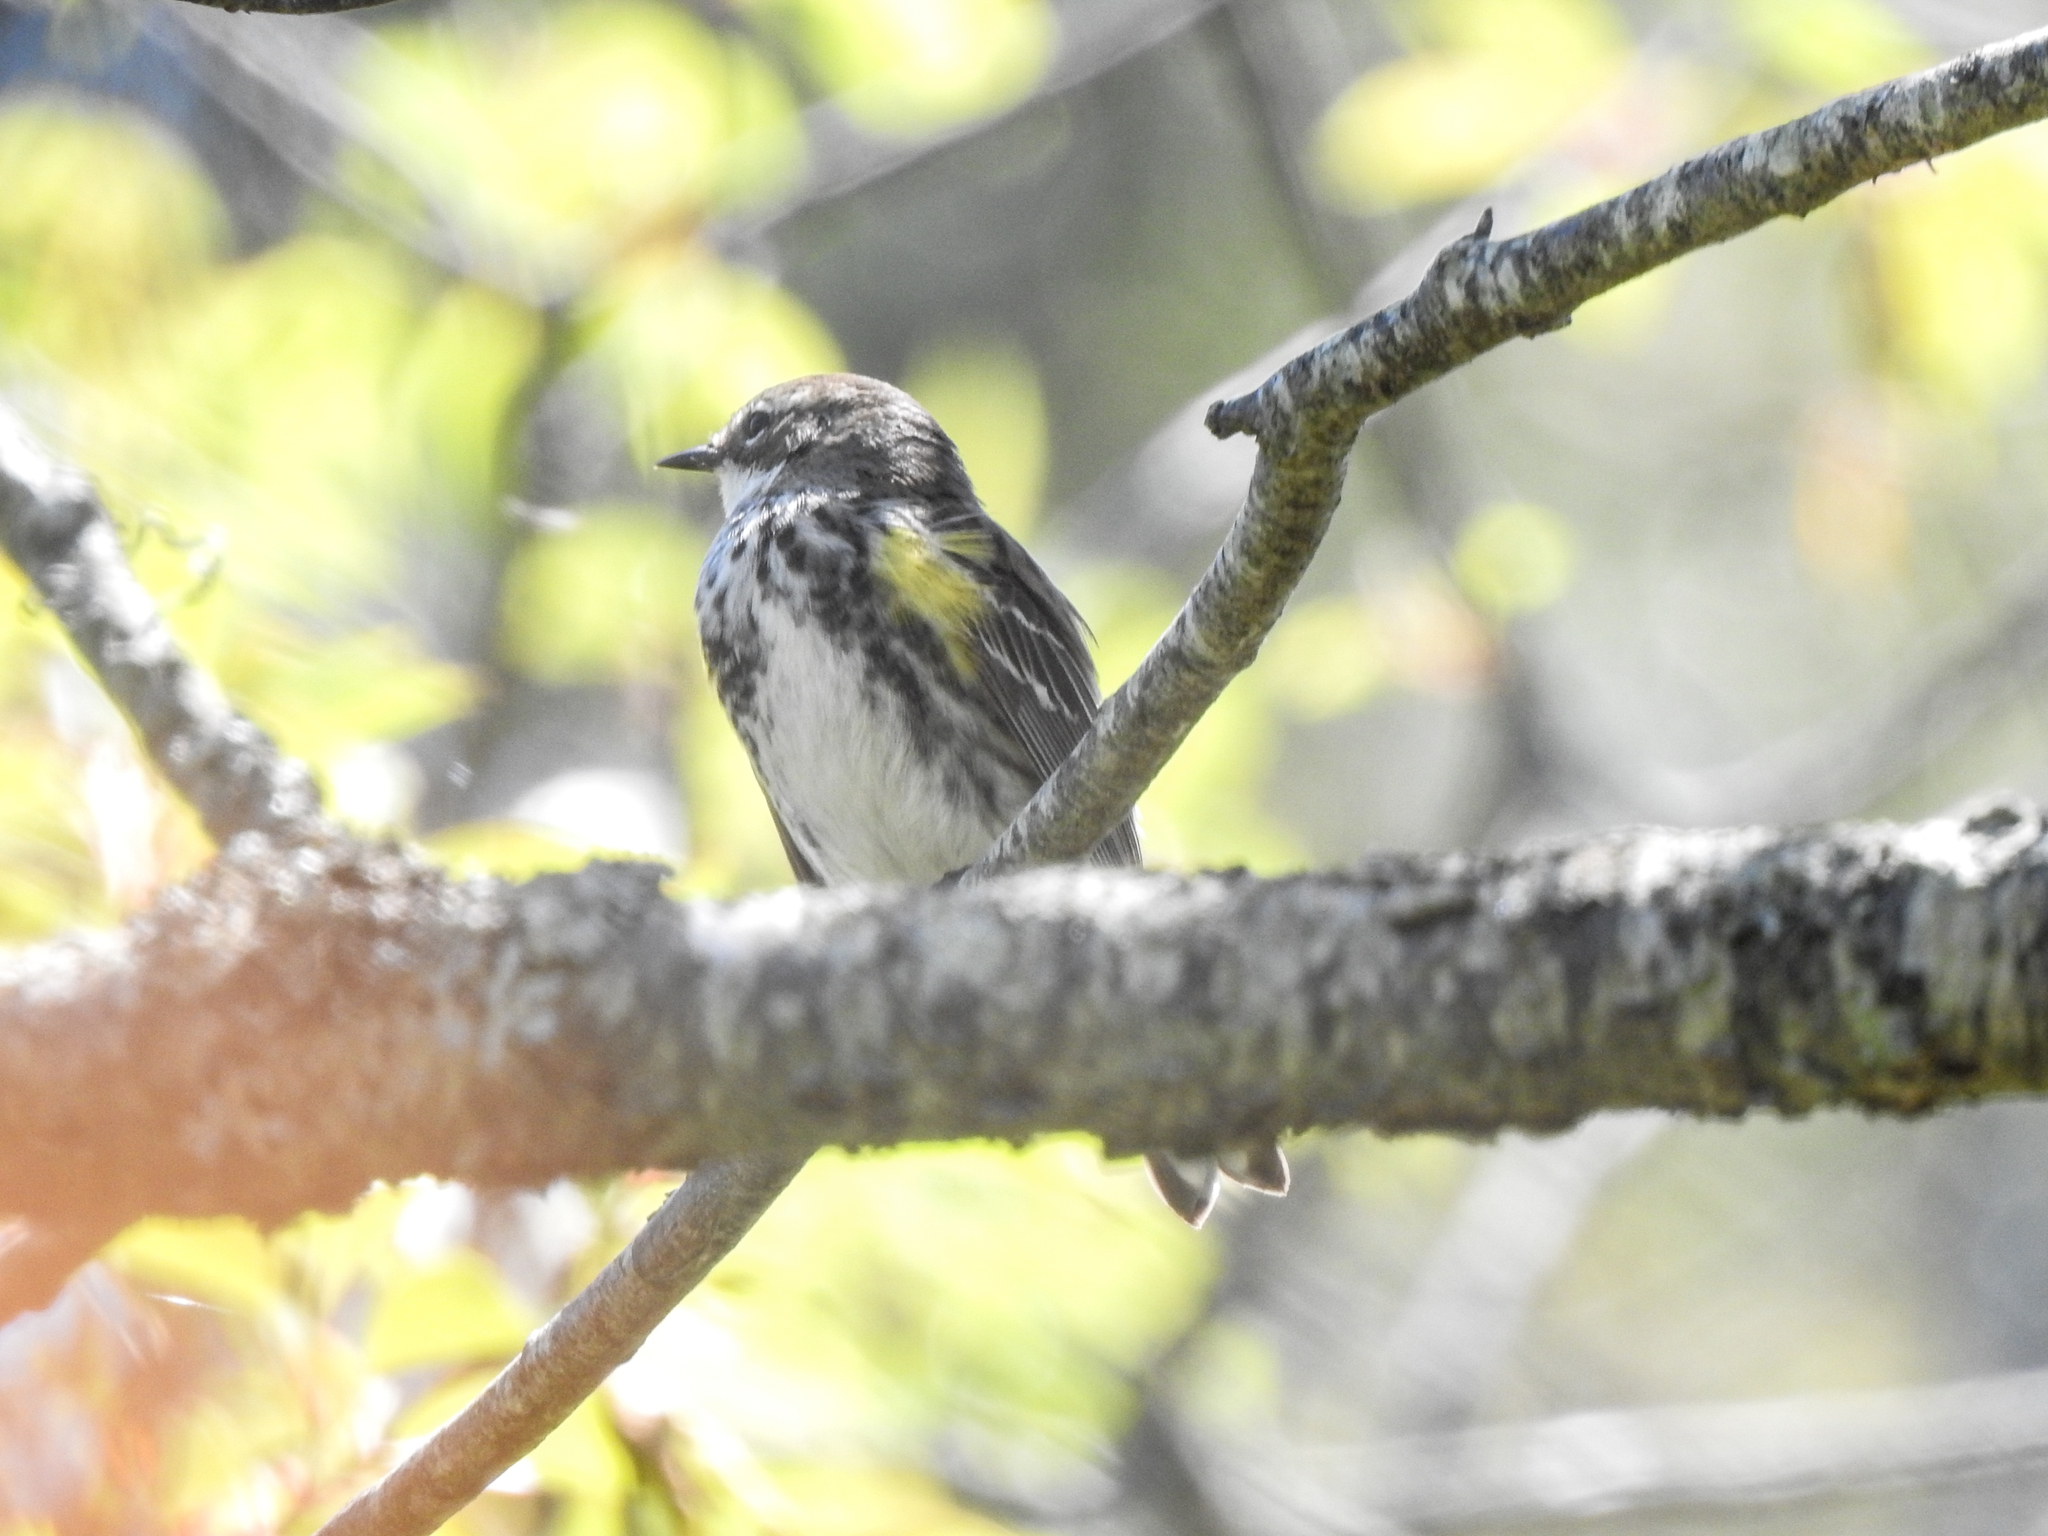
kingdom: Animalia
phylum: Chordata
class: Aves
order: Passeriformes
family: Parulidae
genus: Setophaga
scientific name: Setophaga coronata
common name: Myrtle warbler
